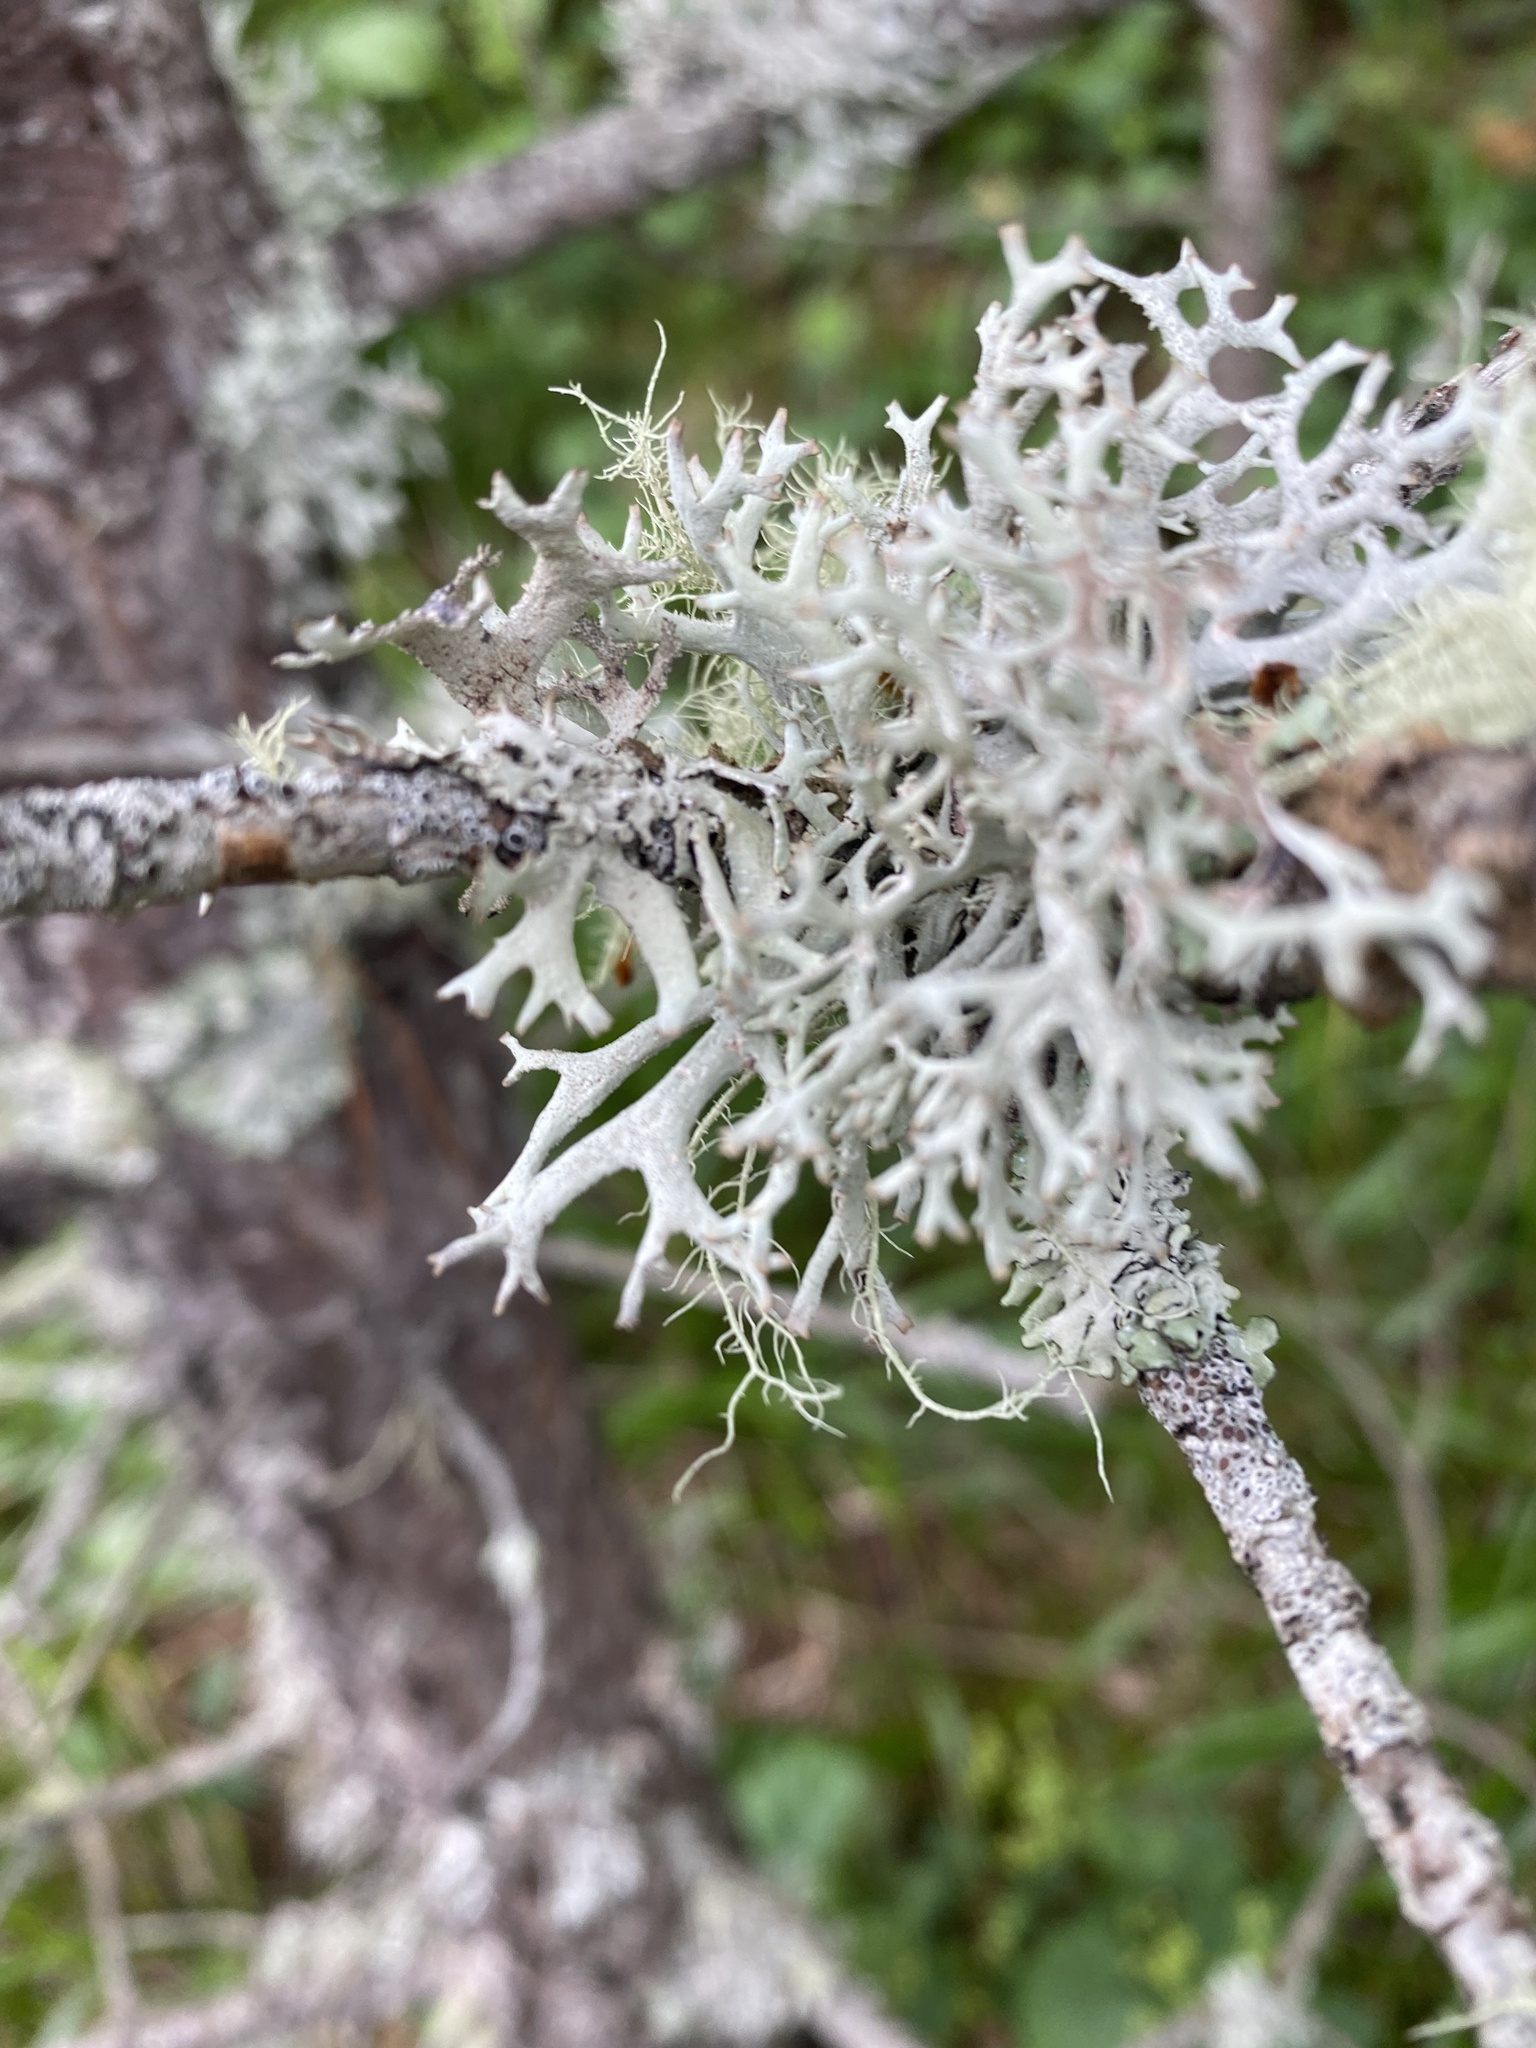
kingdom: Fungi
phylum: Ascomycota
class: Lecanoromycetes
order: Lecanorales
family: Parmeliaceae
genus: Pseudevernia
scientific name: Pseudevernia furfuracea
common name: Tree moss
